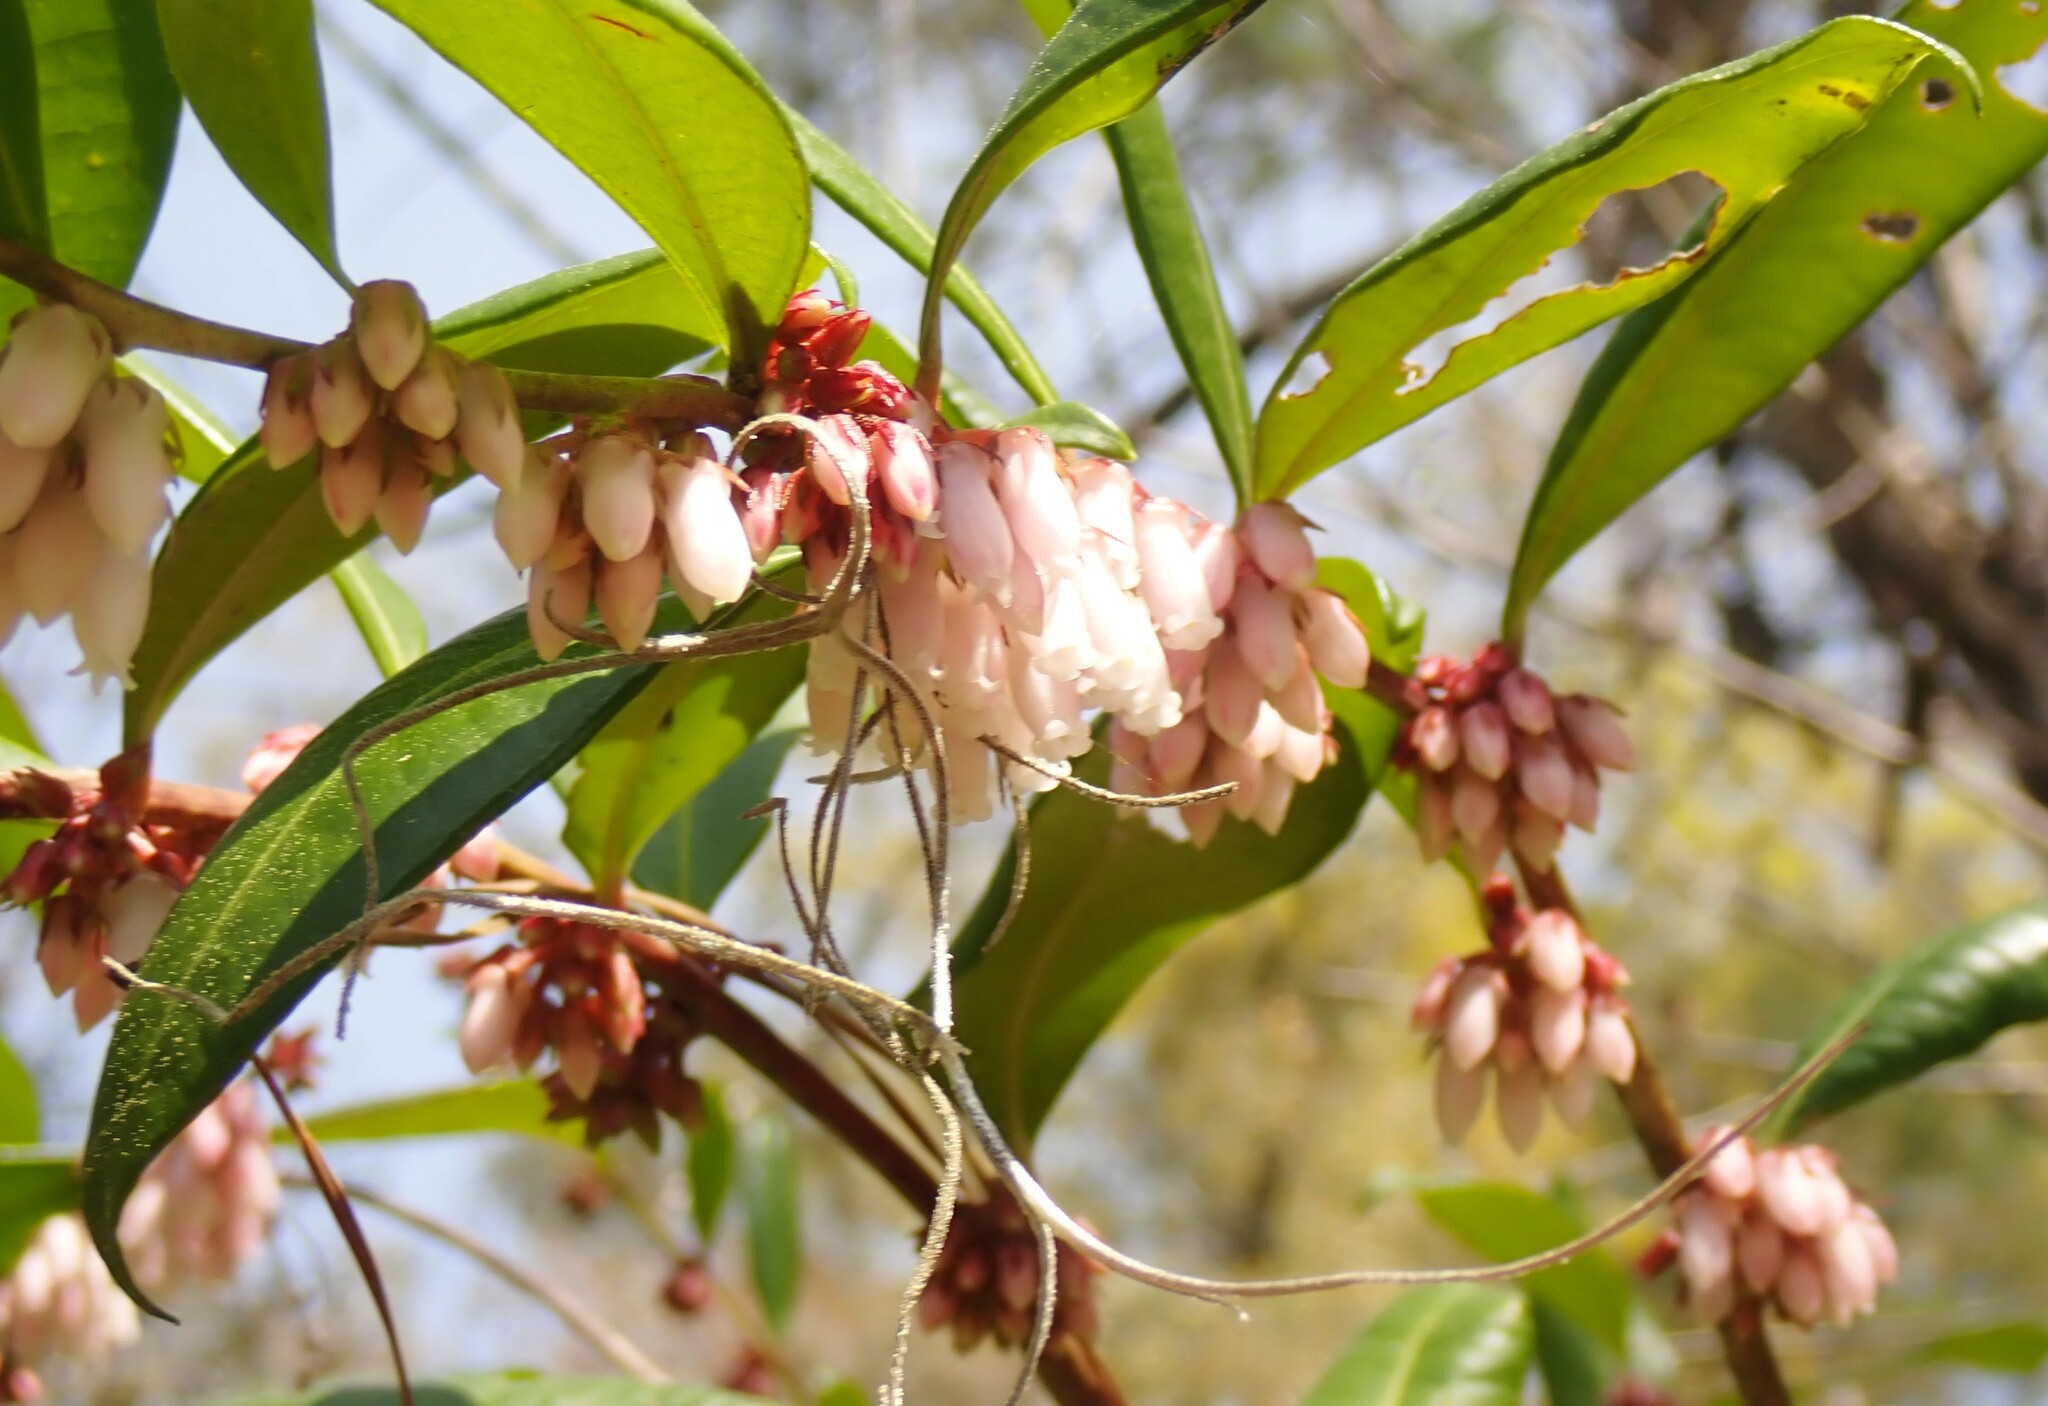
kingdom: Plantae
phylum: Tracheophyta
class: Magnoliopsida
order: Ericales
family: Ericaceae
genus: Lyonia
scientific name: Lyonia lucida
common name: Fetterbush
